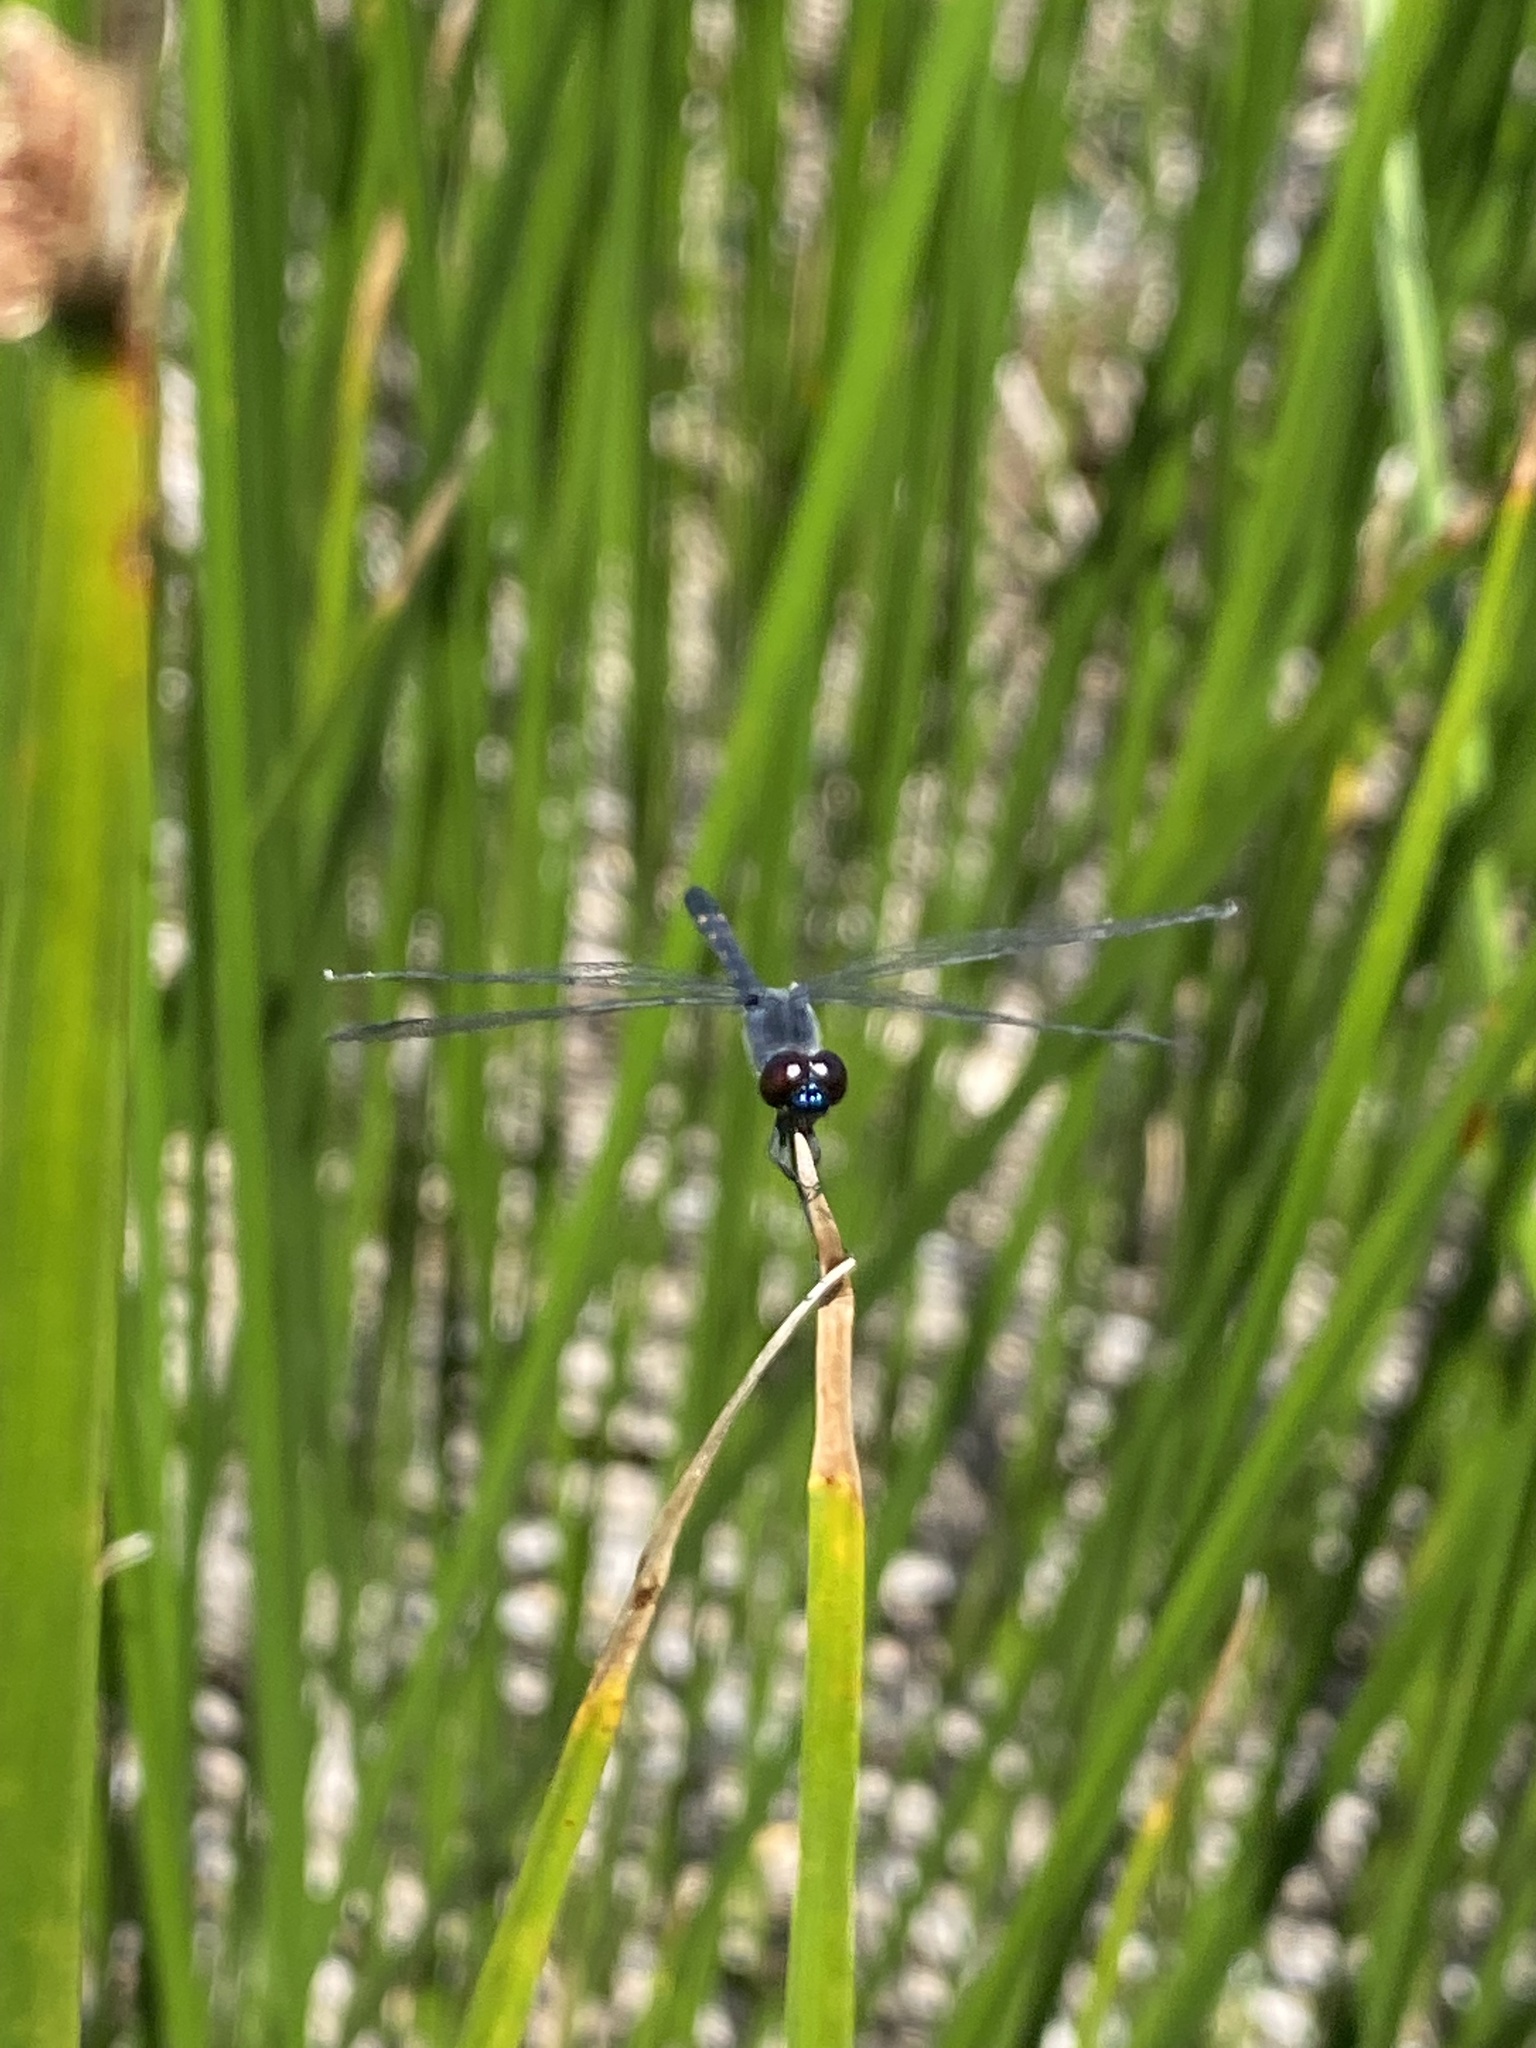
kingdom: Animalia
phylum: Arthropoda
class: Insecta
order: Odonata
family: Libellulidae
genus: Erythrodiplax
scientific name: Erythrodiplax berenice
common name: Seaside dragonlet
